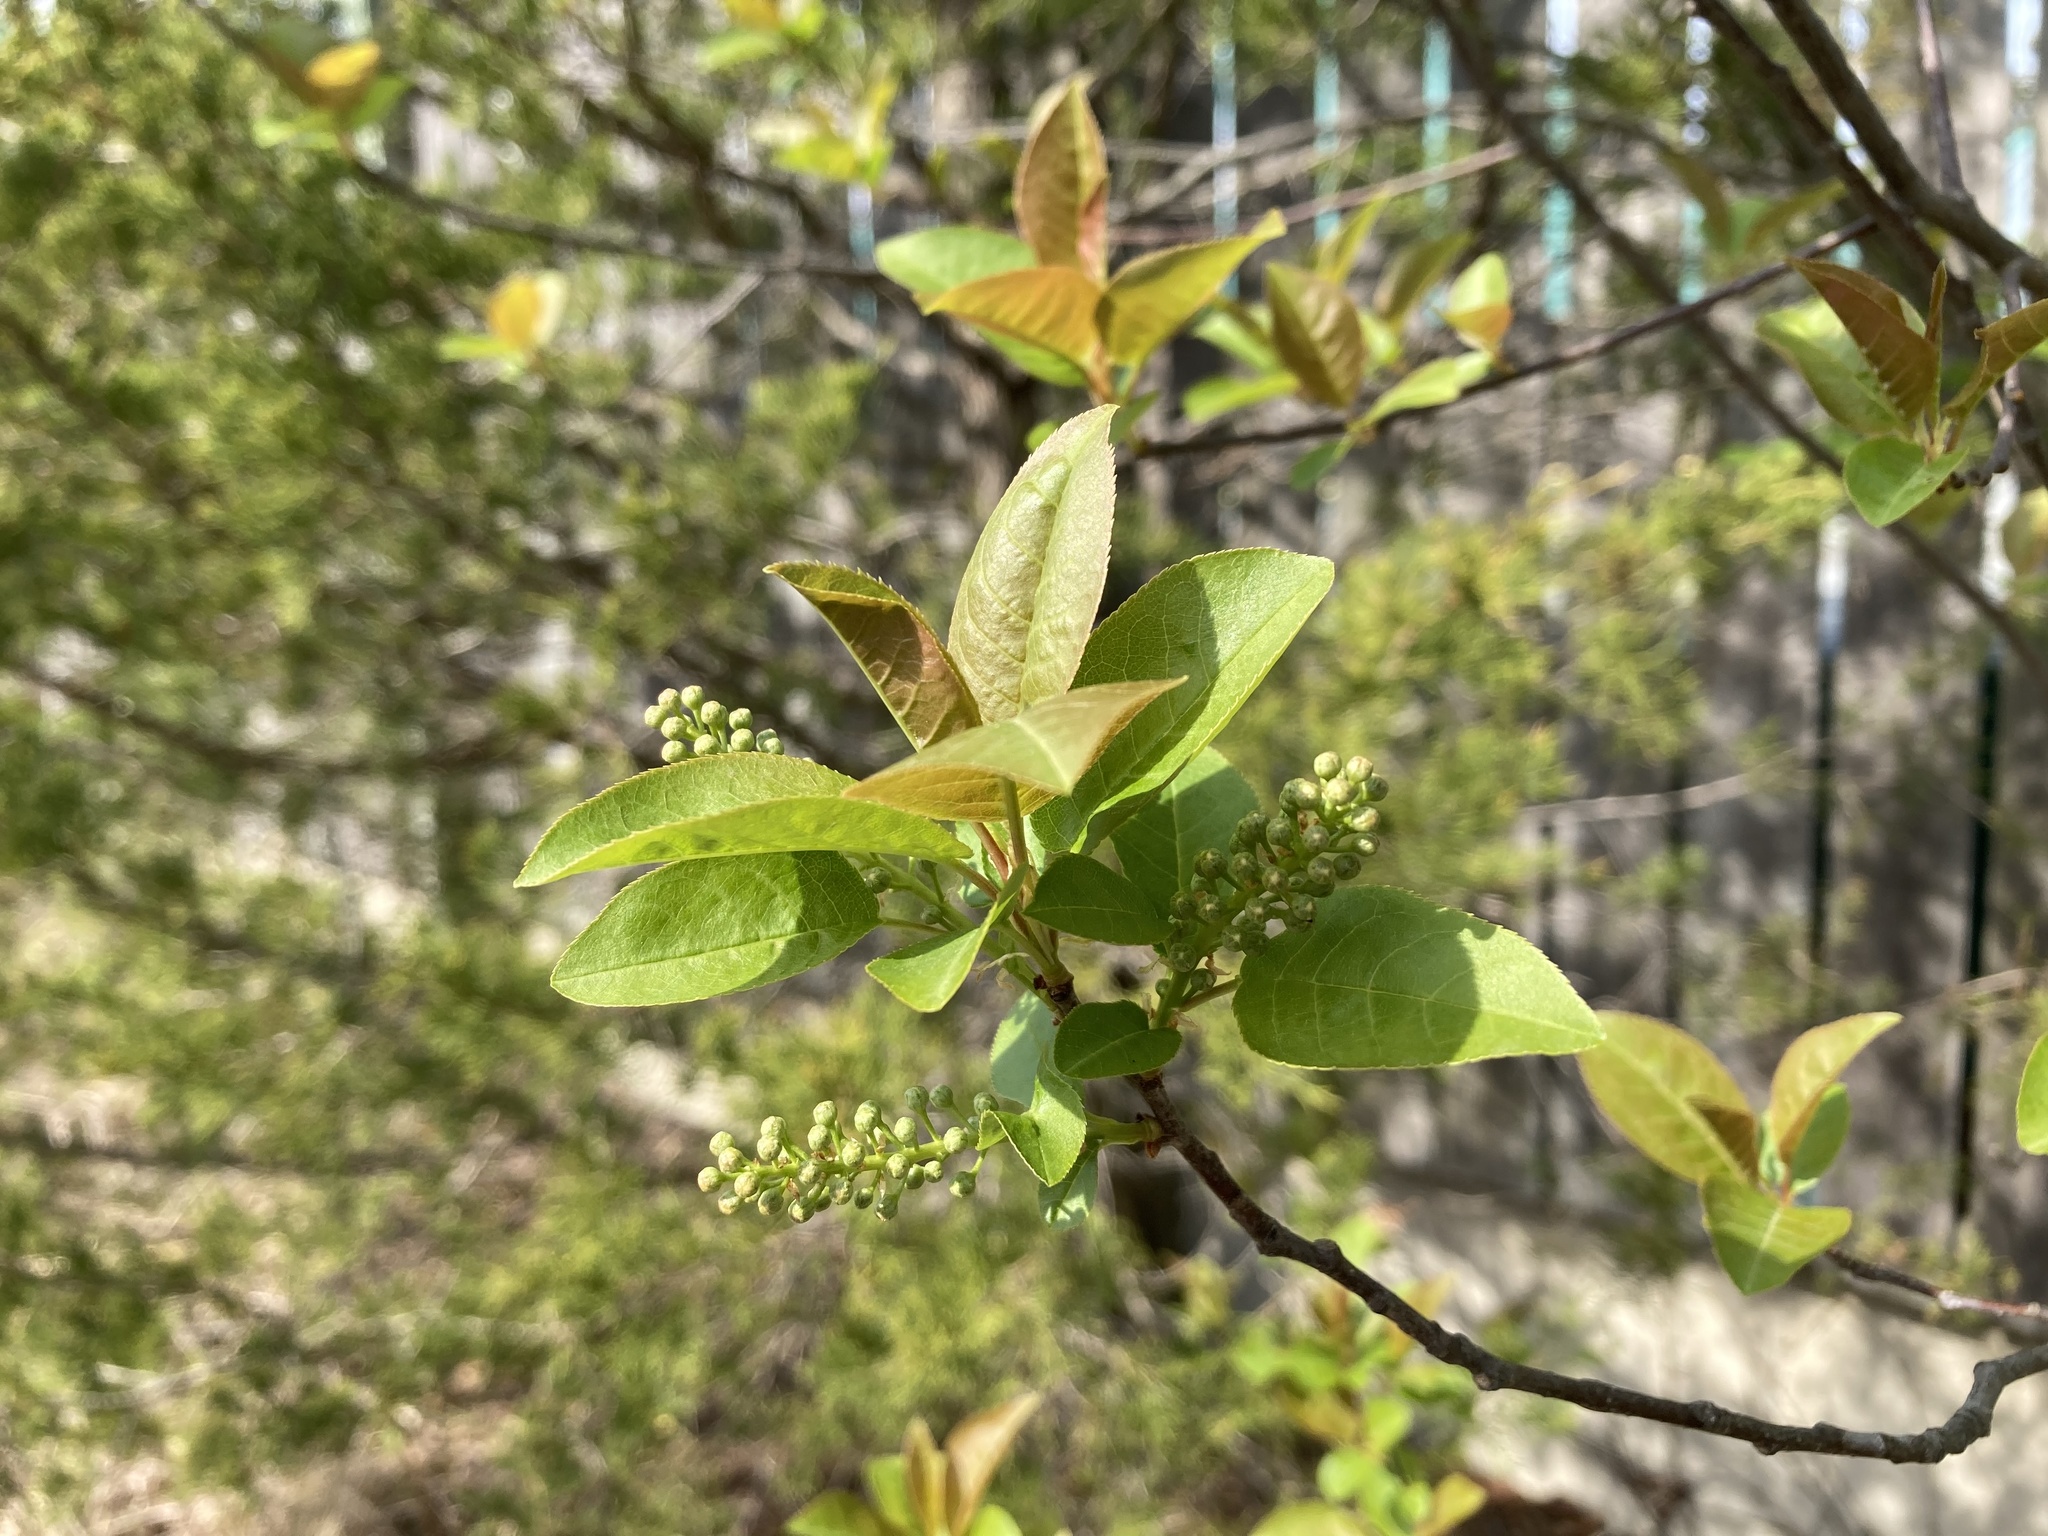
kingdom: Plantae
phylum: Tracheophyta
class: Magnoliopsida
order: Rosales
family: Rosaceae
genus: Prunus
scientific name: Prunus virginiana
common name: Chokecherry
